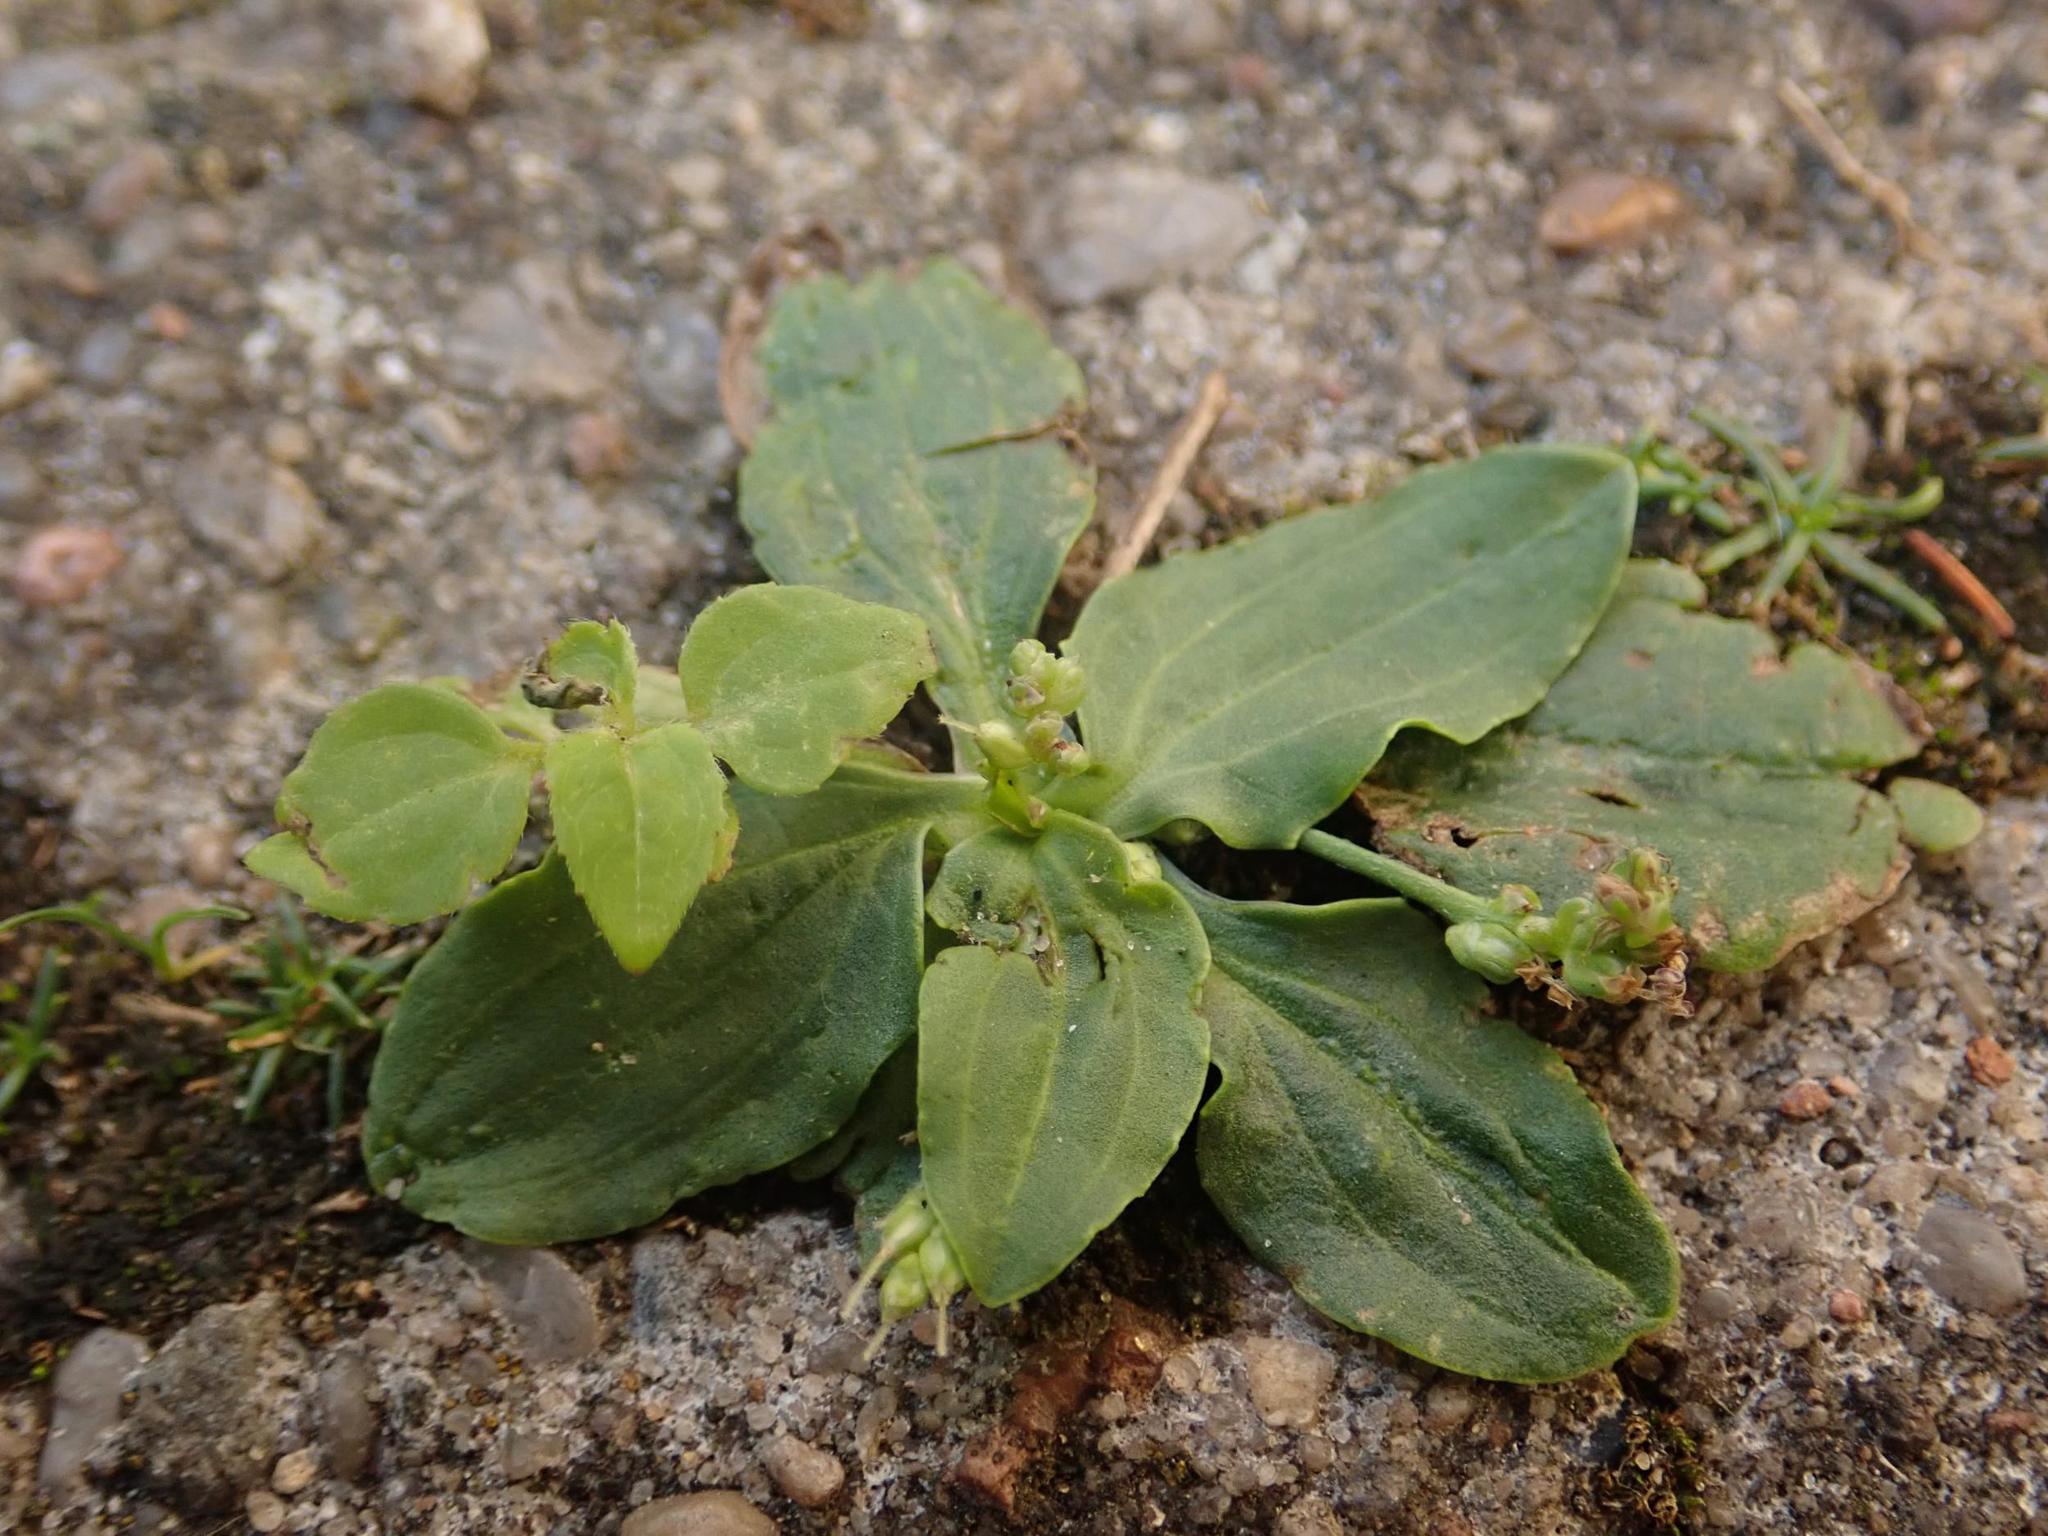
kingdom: Plantae
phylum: Tracheophyta
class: Magnoliopsida
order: Lamiales
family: Plantaginaceae
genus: Plantago
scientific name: Plantago major
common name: Common plantain
